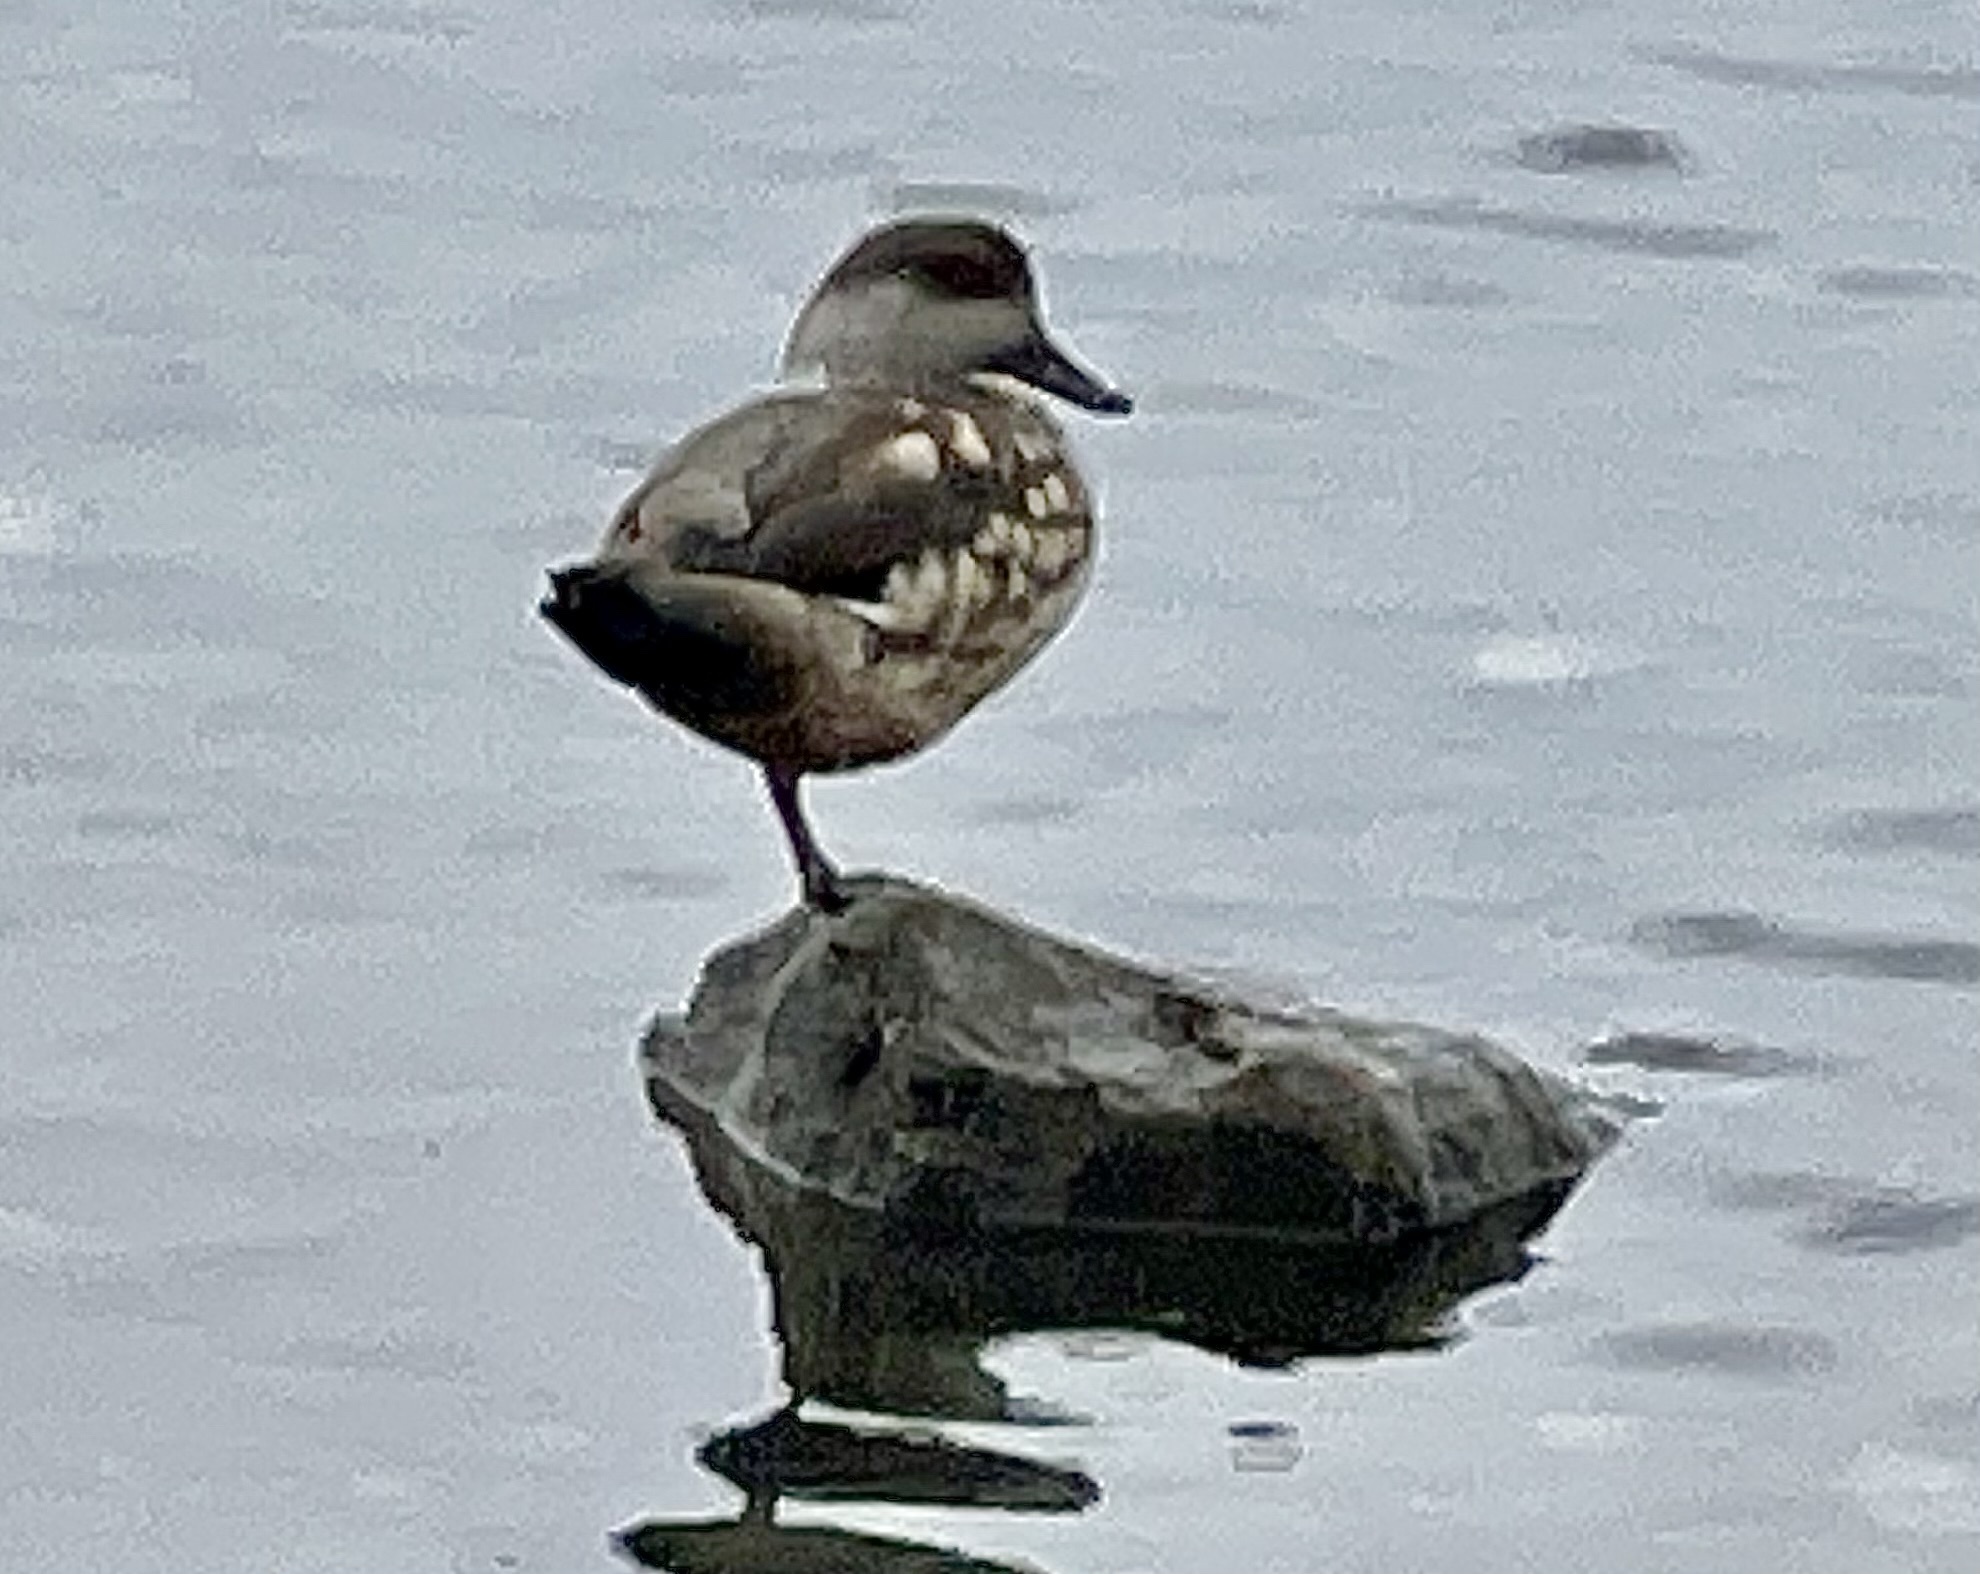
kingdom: Animalia
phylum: Chordata
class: Aves
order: Anseriformes
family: Anatidae
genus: Lophonetta
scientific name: Lophonetta specularioides
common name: Crested duck
